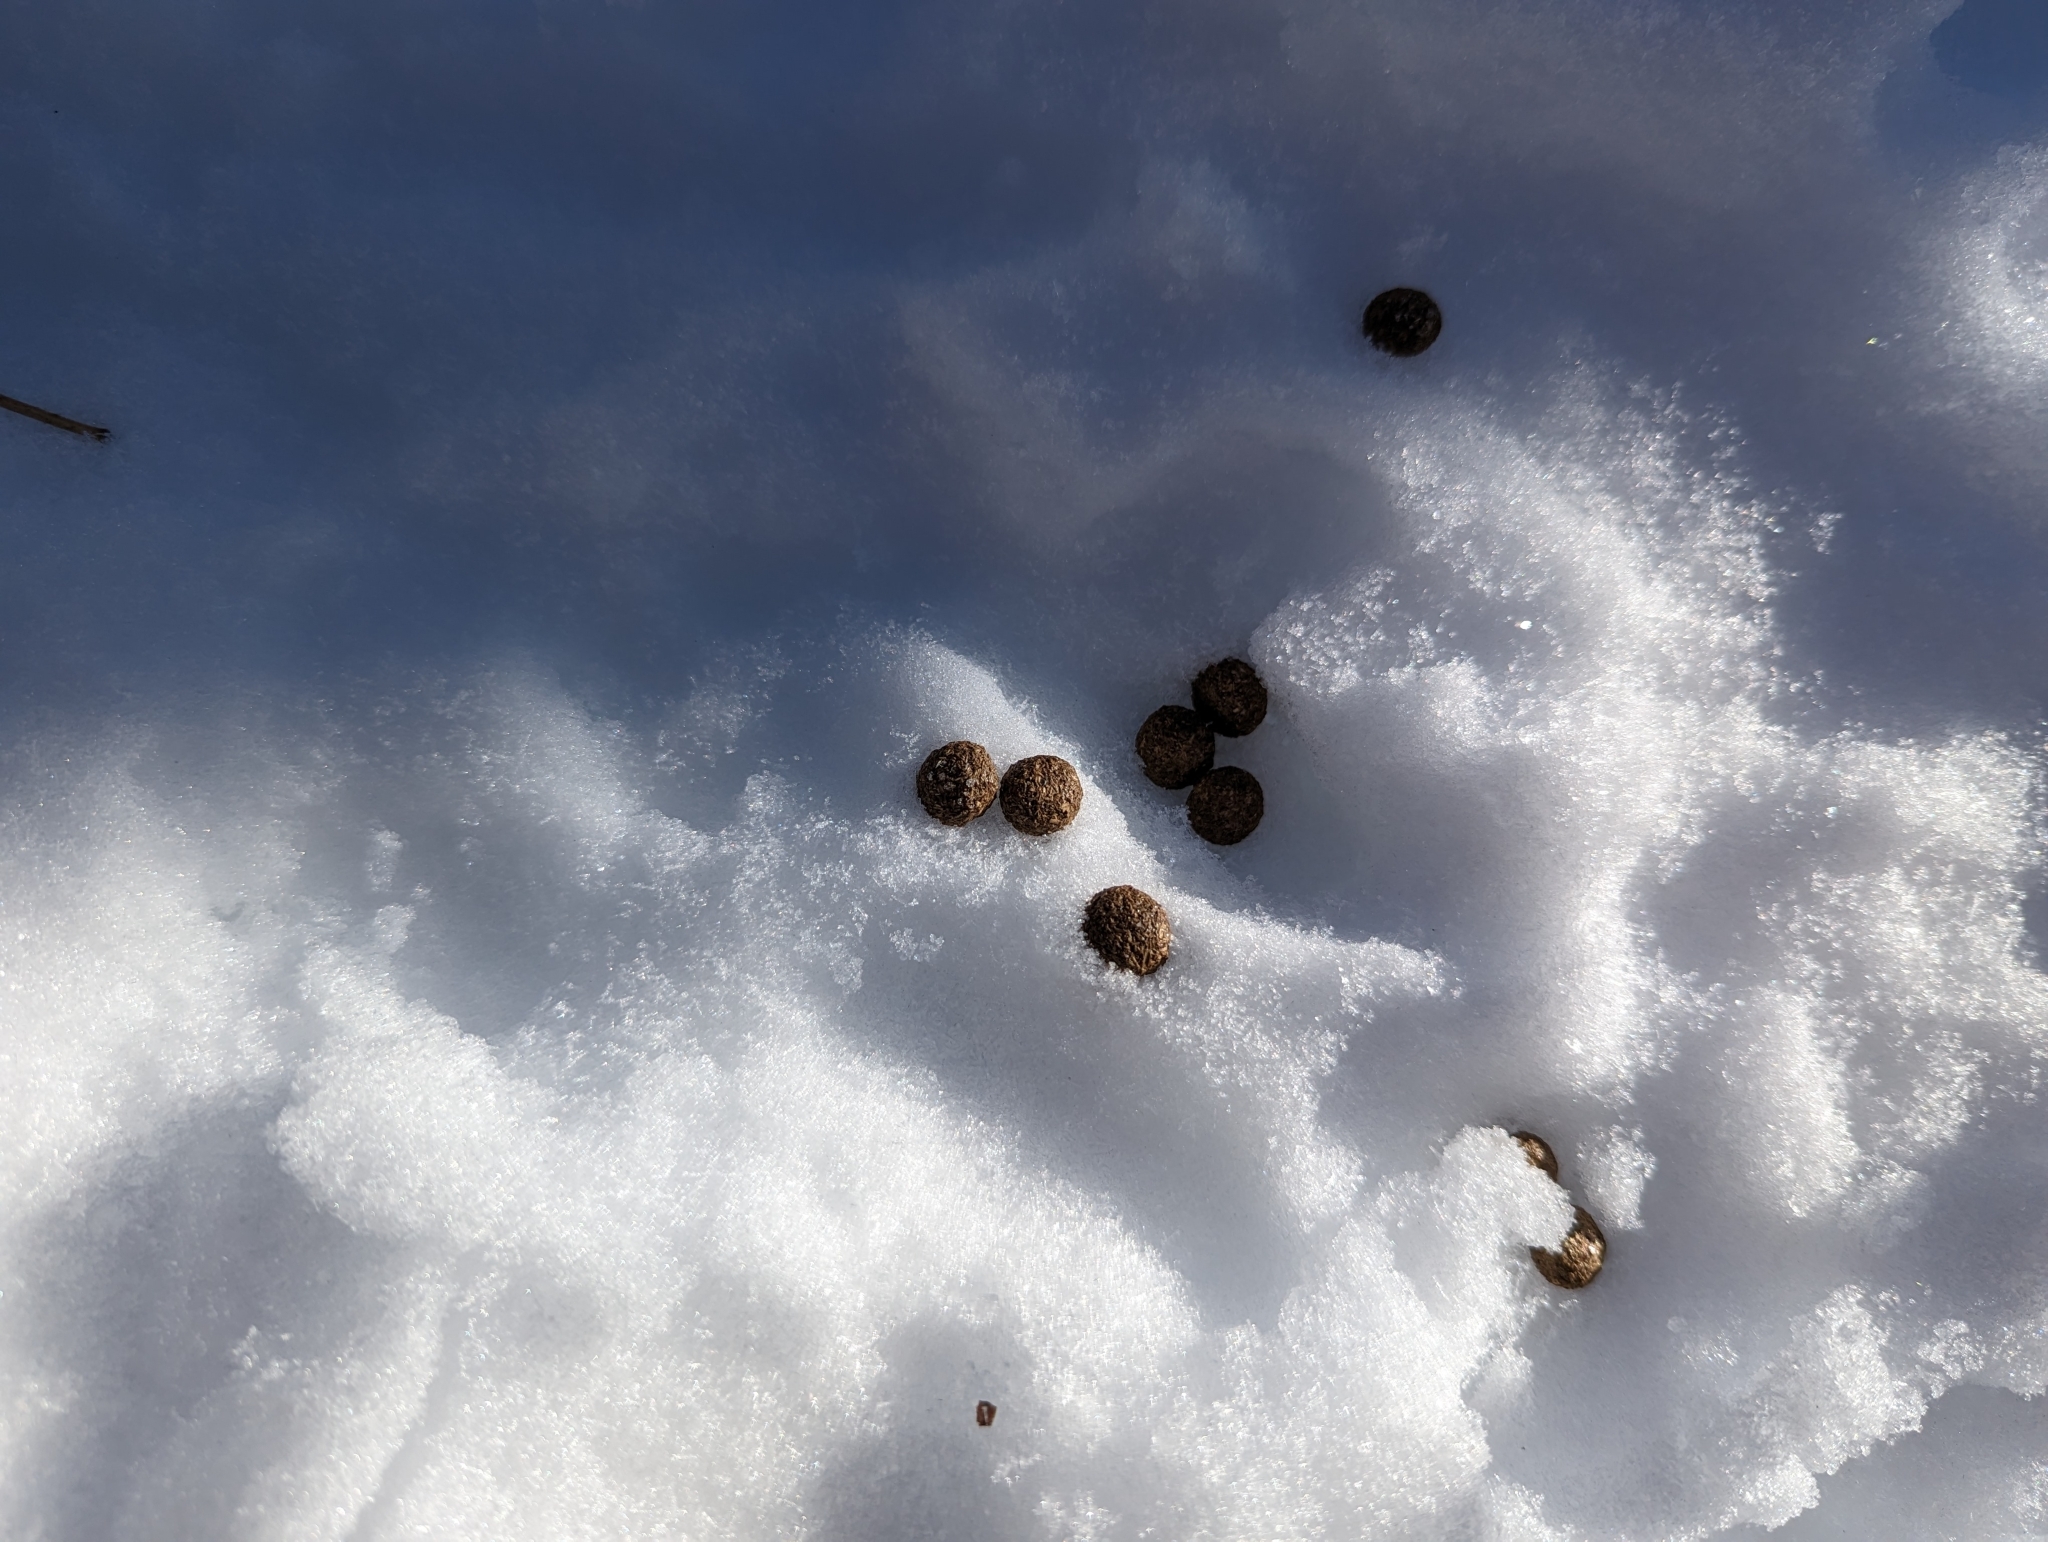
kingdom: Animalia
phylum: Chordata
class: Mammalia
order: Lagomorpha
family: Leporidae
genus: Lepus
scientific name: Lepus americanus
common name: Snowshoe hare
